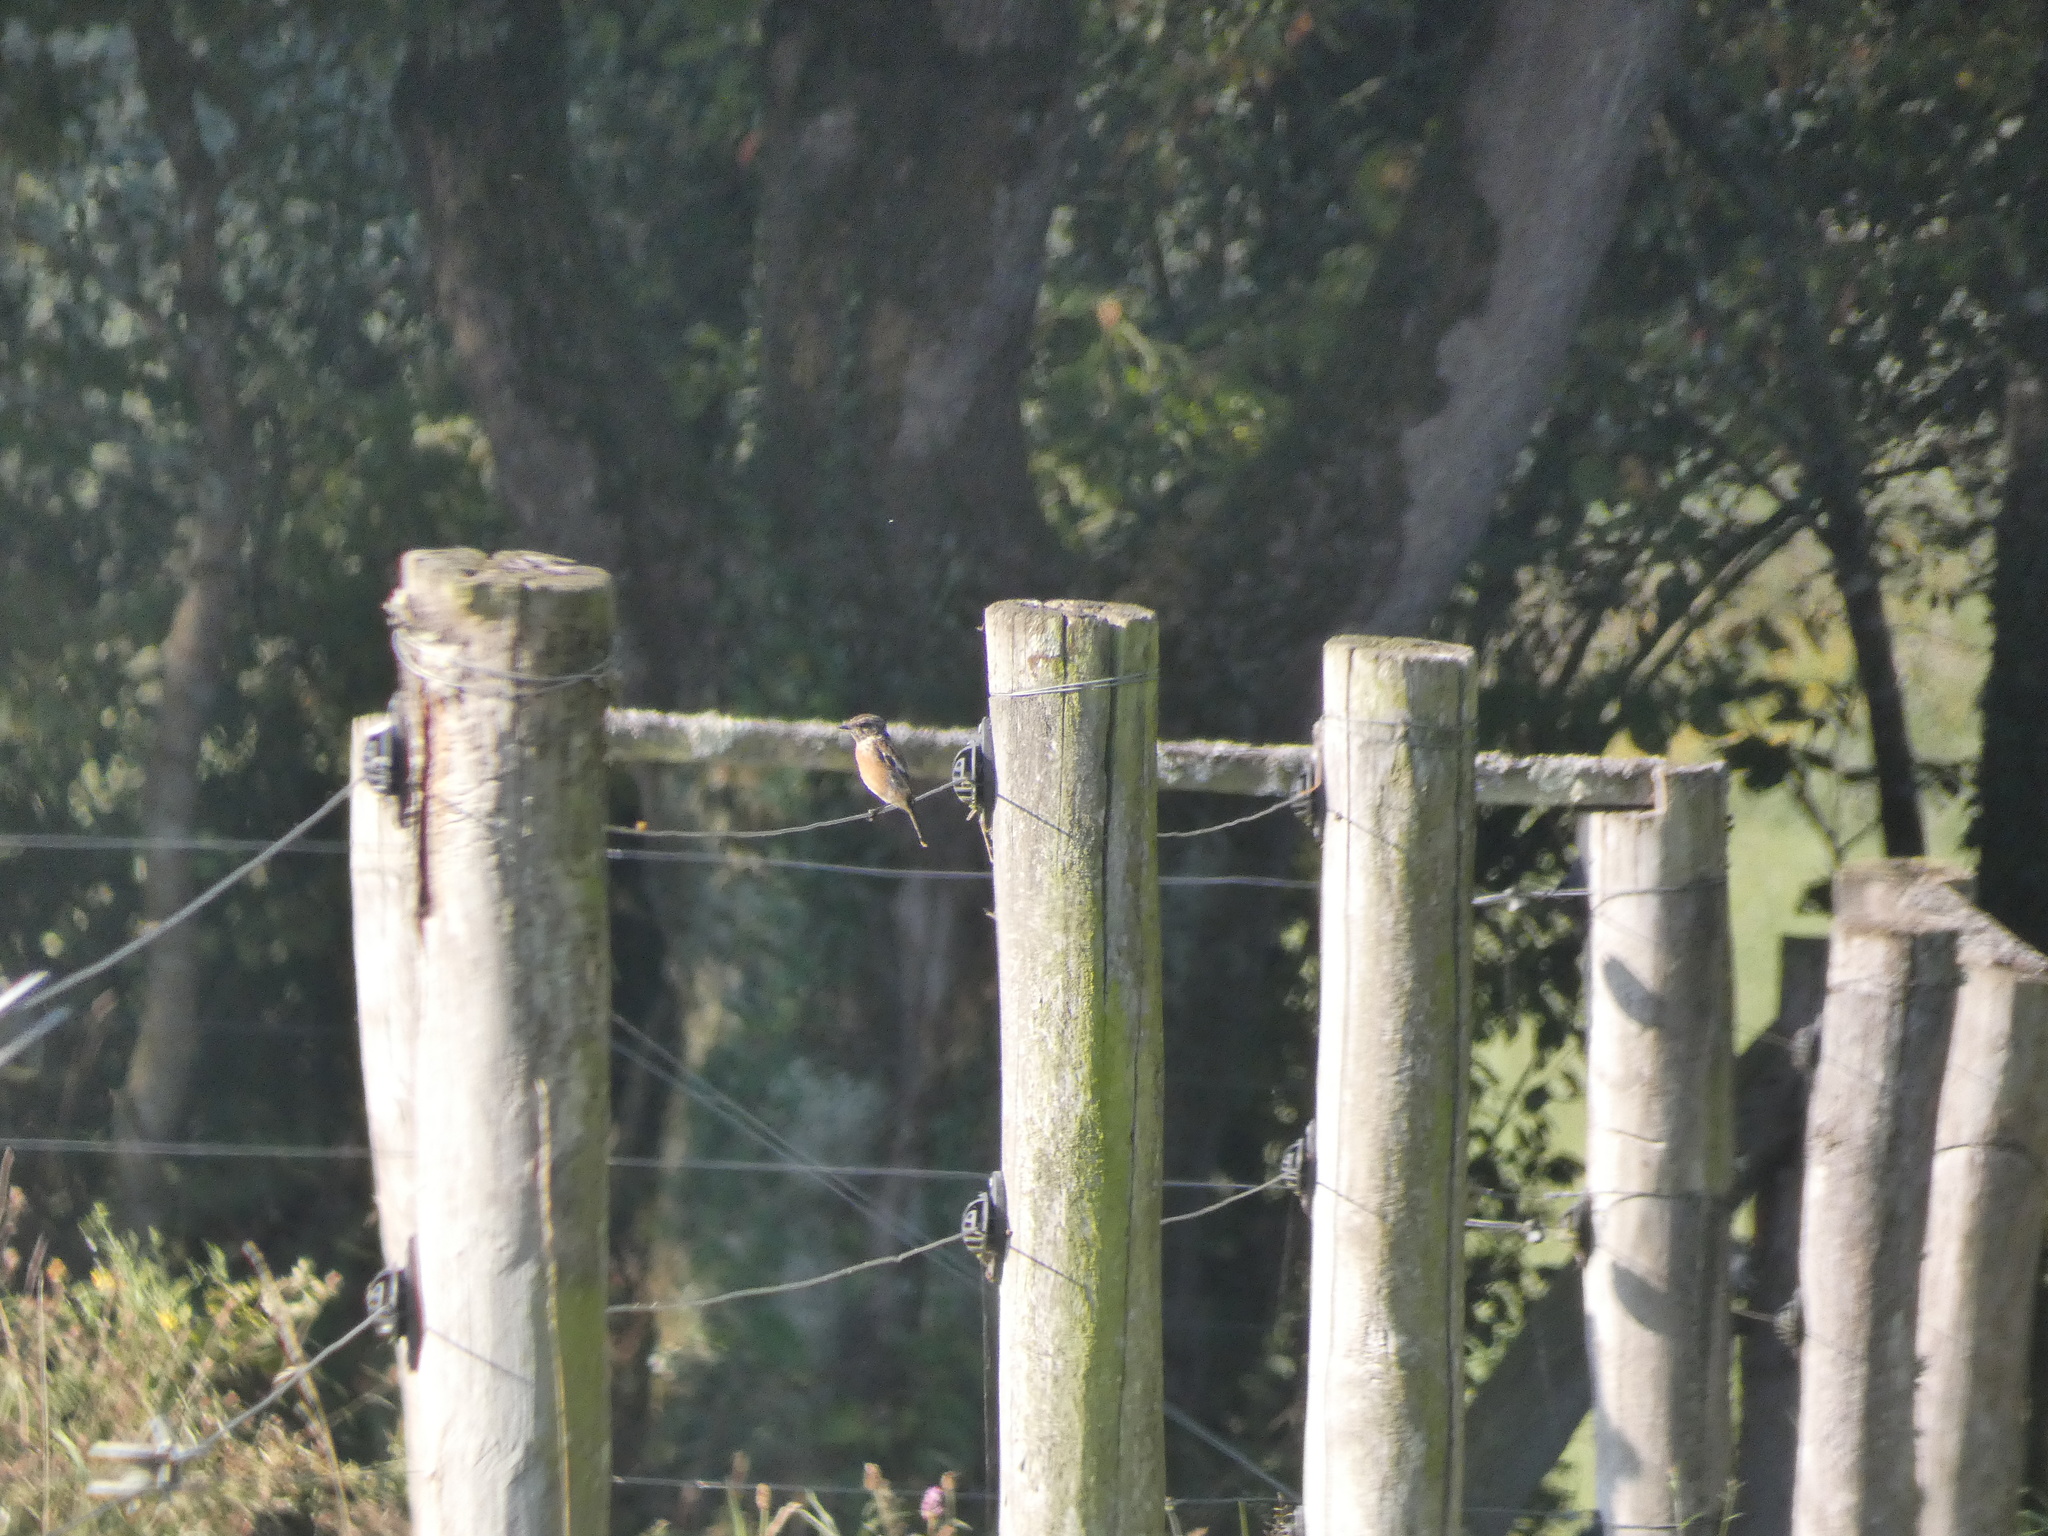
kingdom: Animalia
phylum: Chordata
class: Aves
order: Passeriformes
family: Muscicapidae
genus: Saxicola
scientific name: Saxicola rubicola
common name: European stonechat
